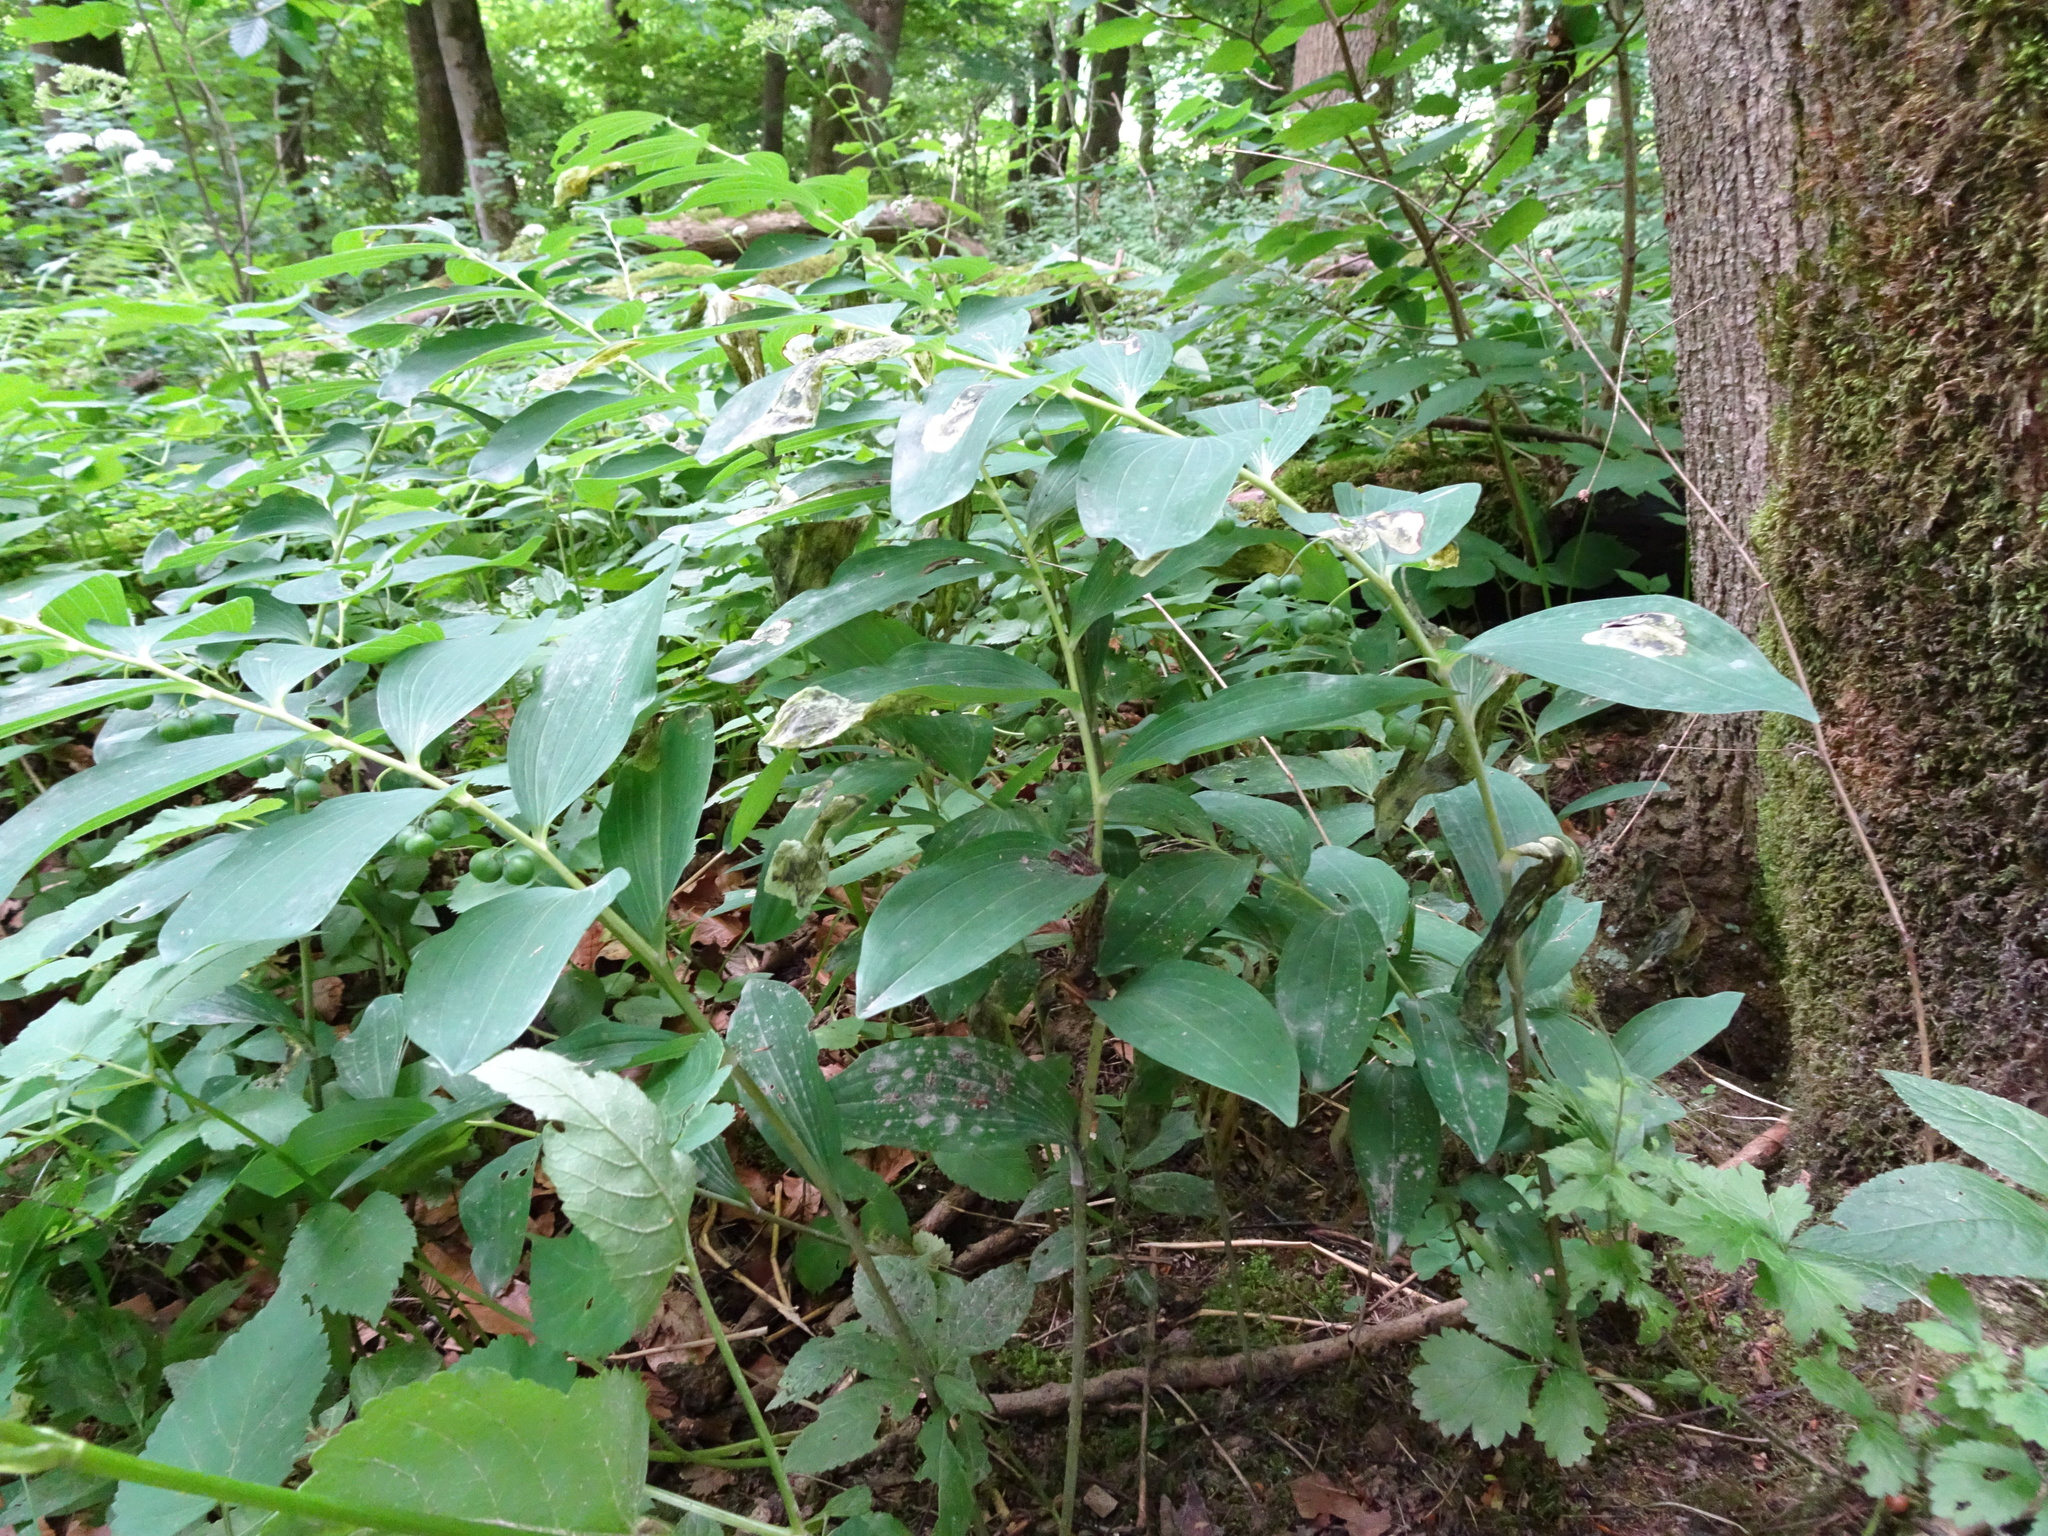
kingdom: Plantae
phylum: Tracheophyta
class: Liliopsida
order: Asparagales
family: Asparagaceae
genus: Polygonatum
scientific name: Polygonatum multiflorum
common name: Solomon's-seal
